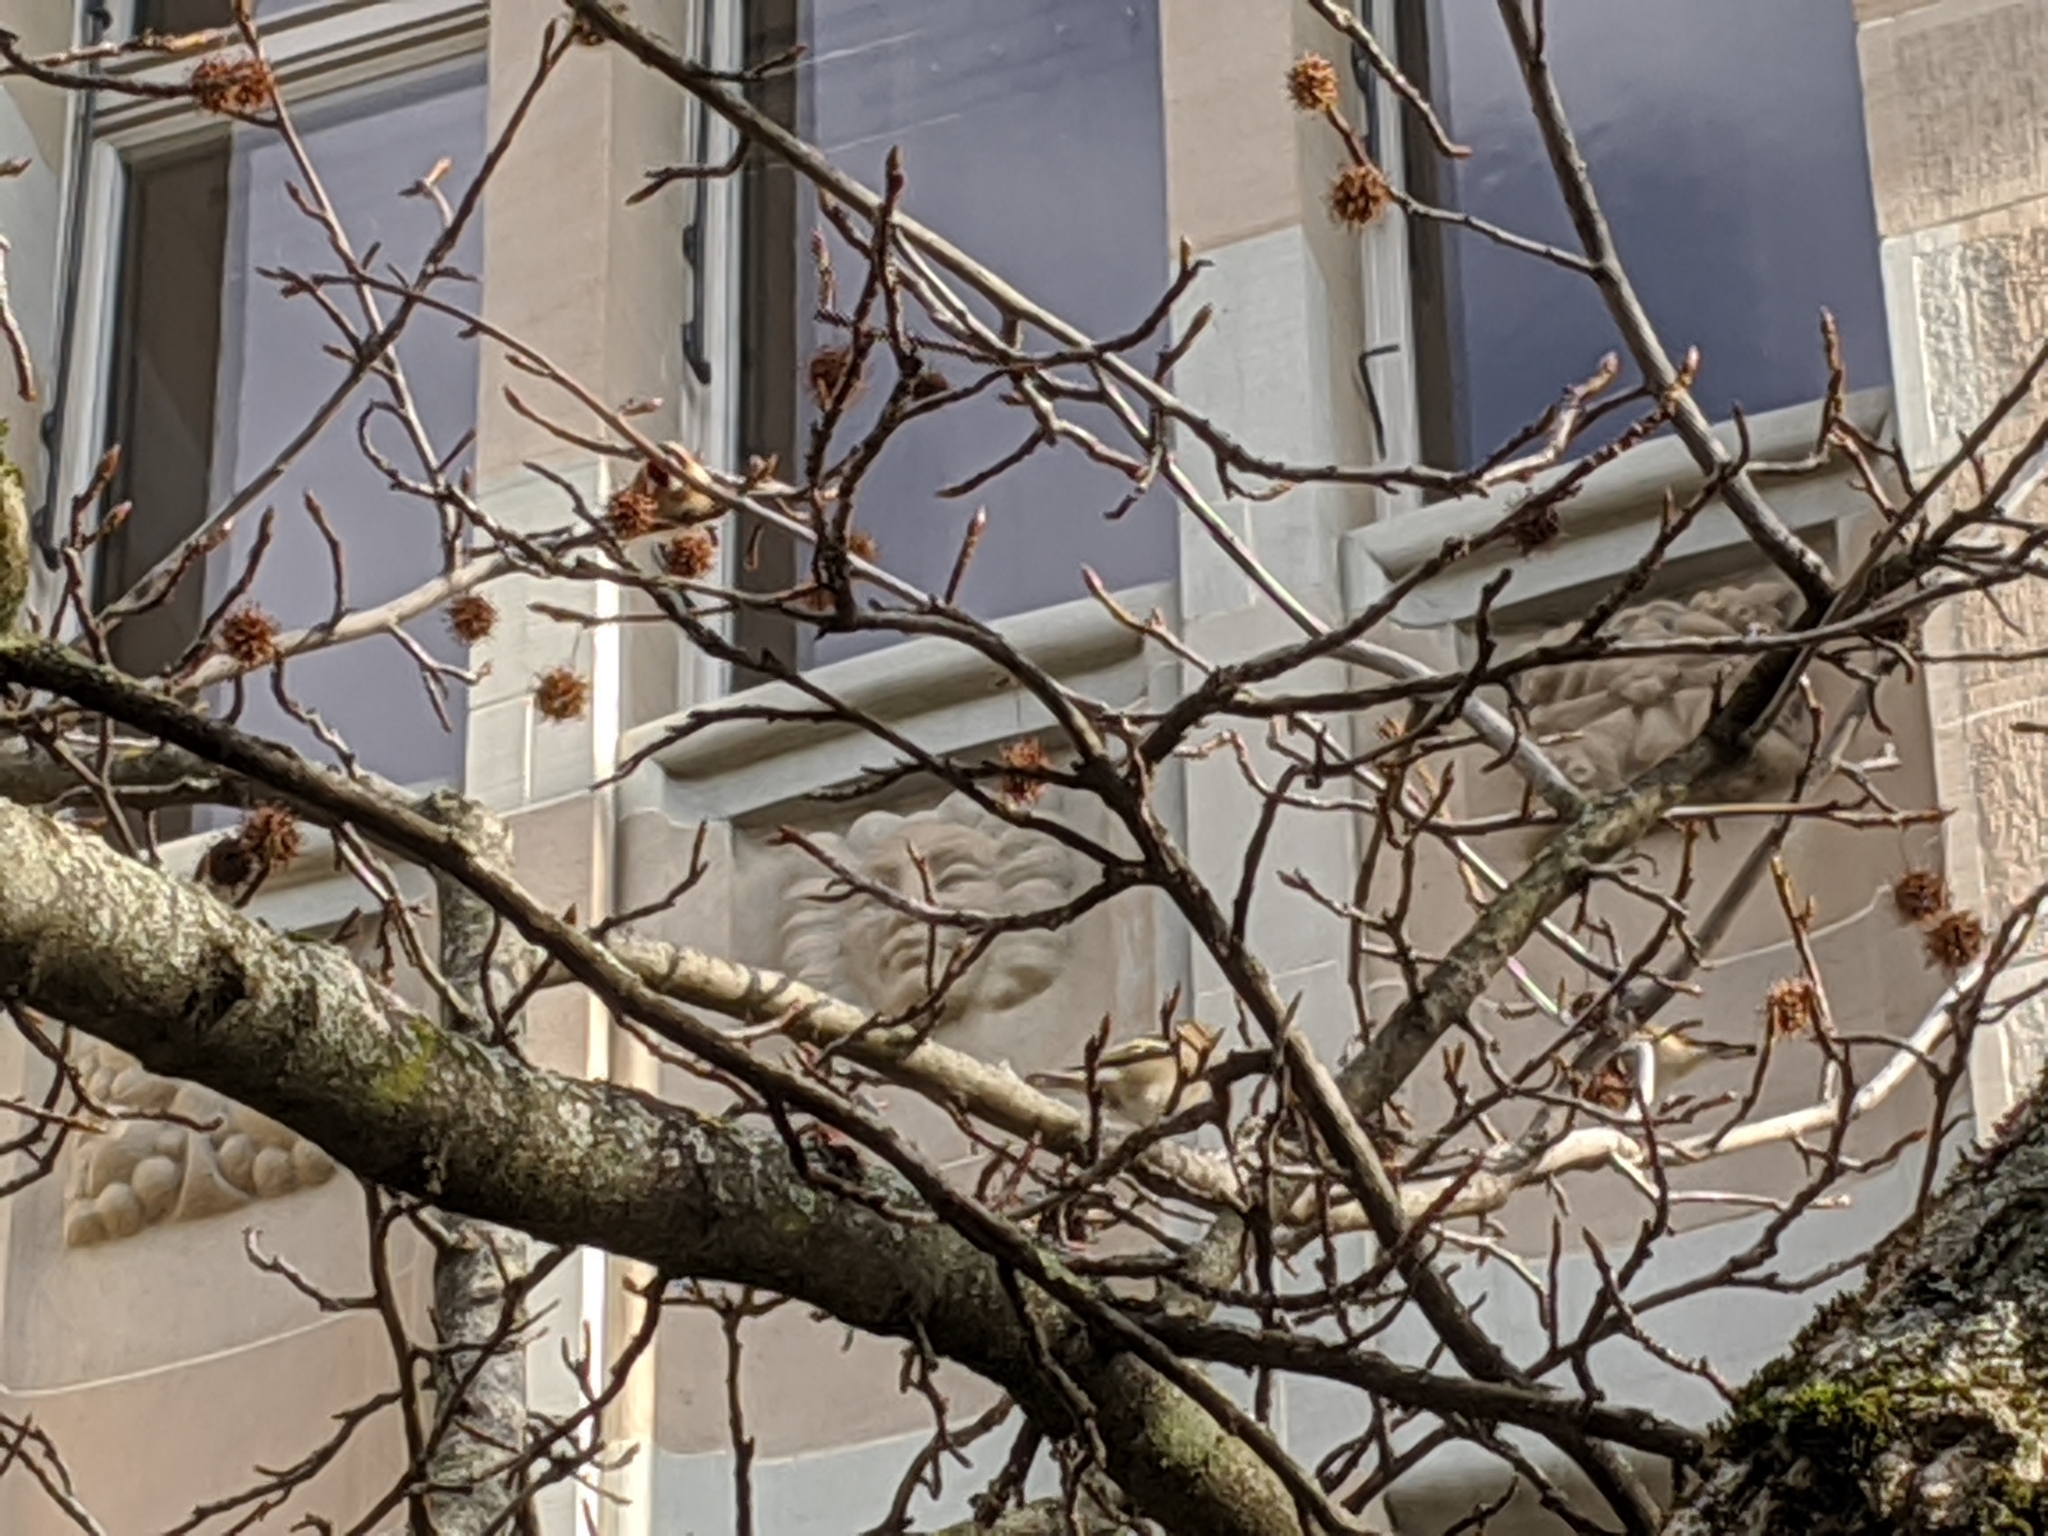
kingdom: Animalia
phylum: Chordata
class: Aves
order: Passeriformes
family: Fringillidae
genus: Carduelis
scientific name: Carduelis carduelis
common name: European goldfinch
